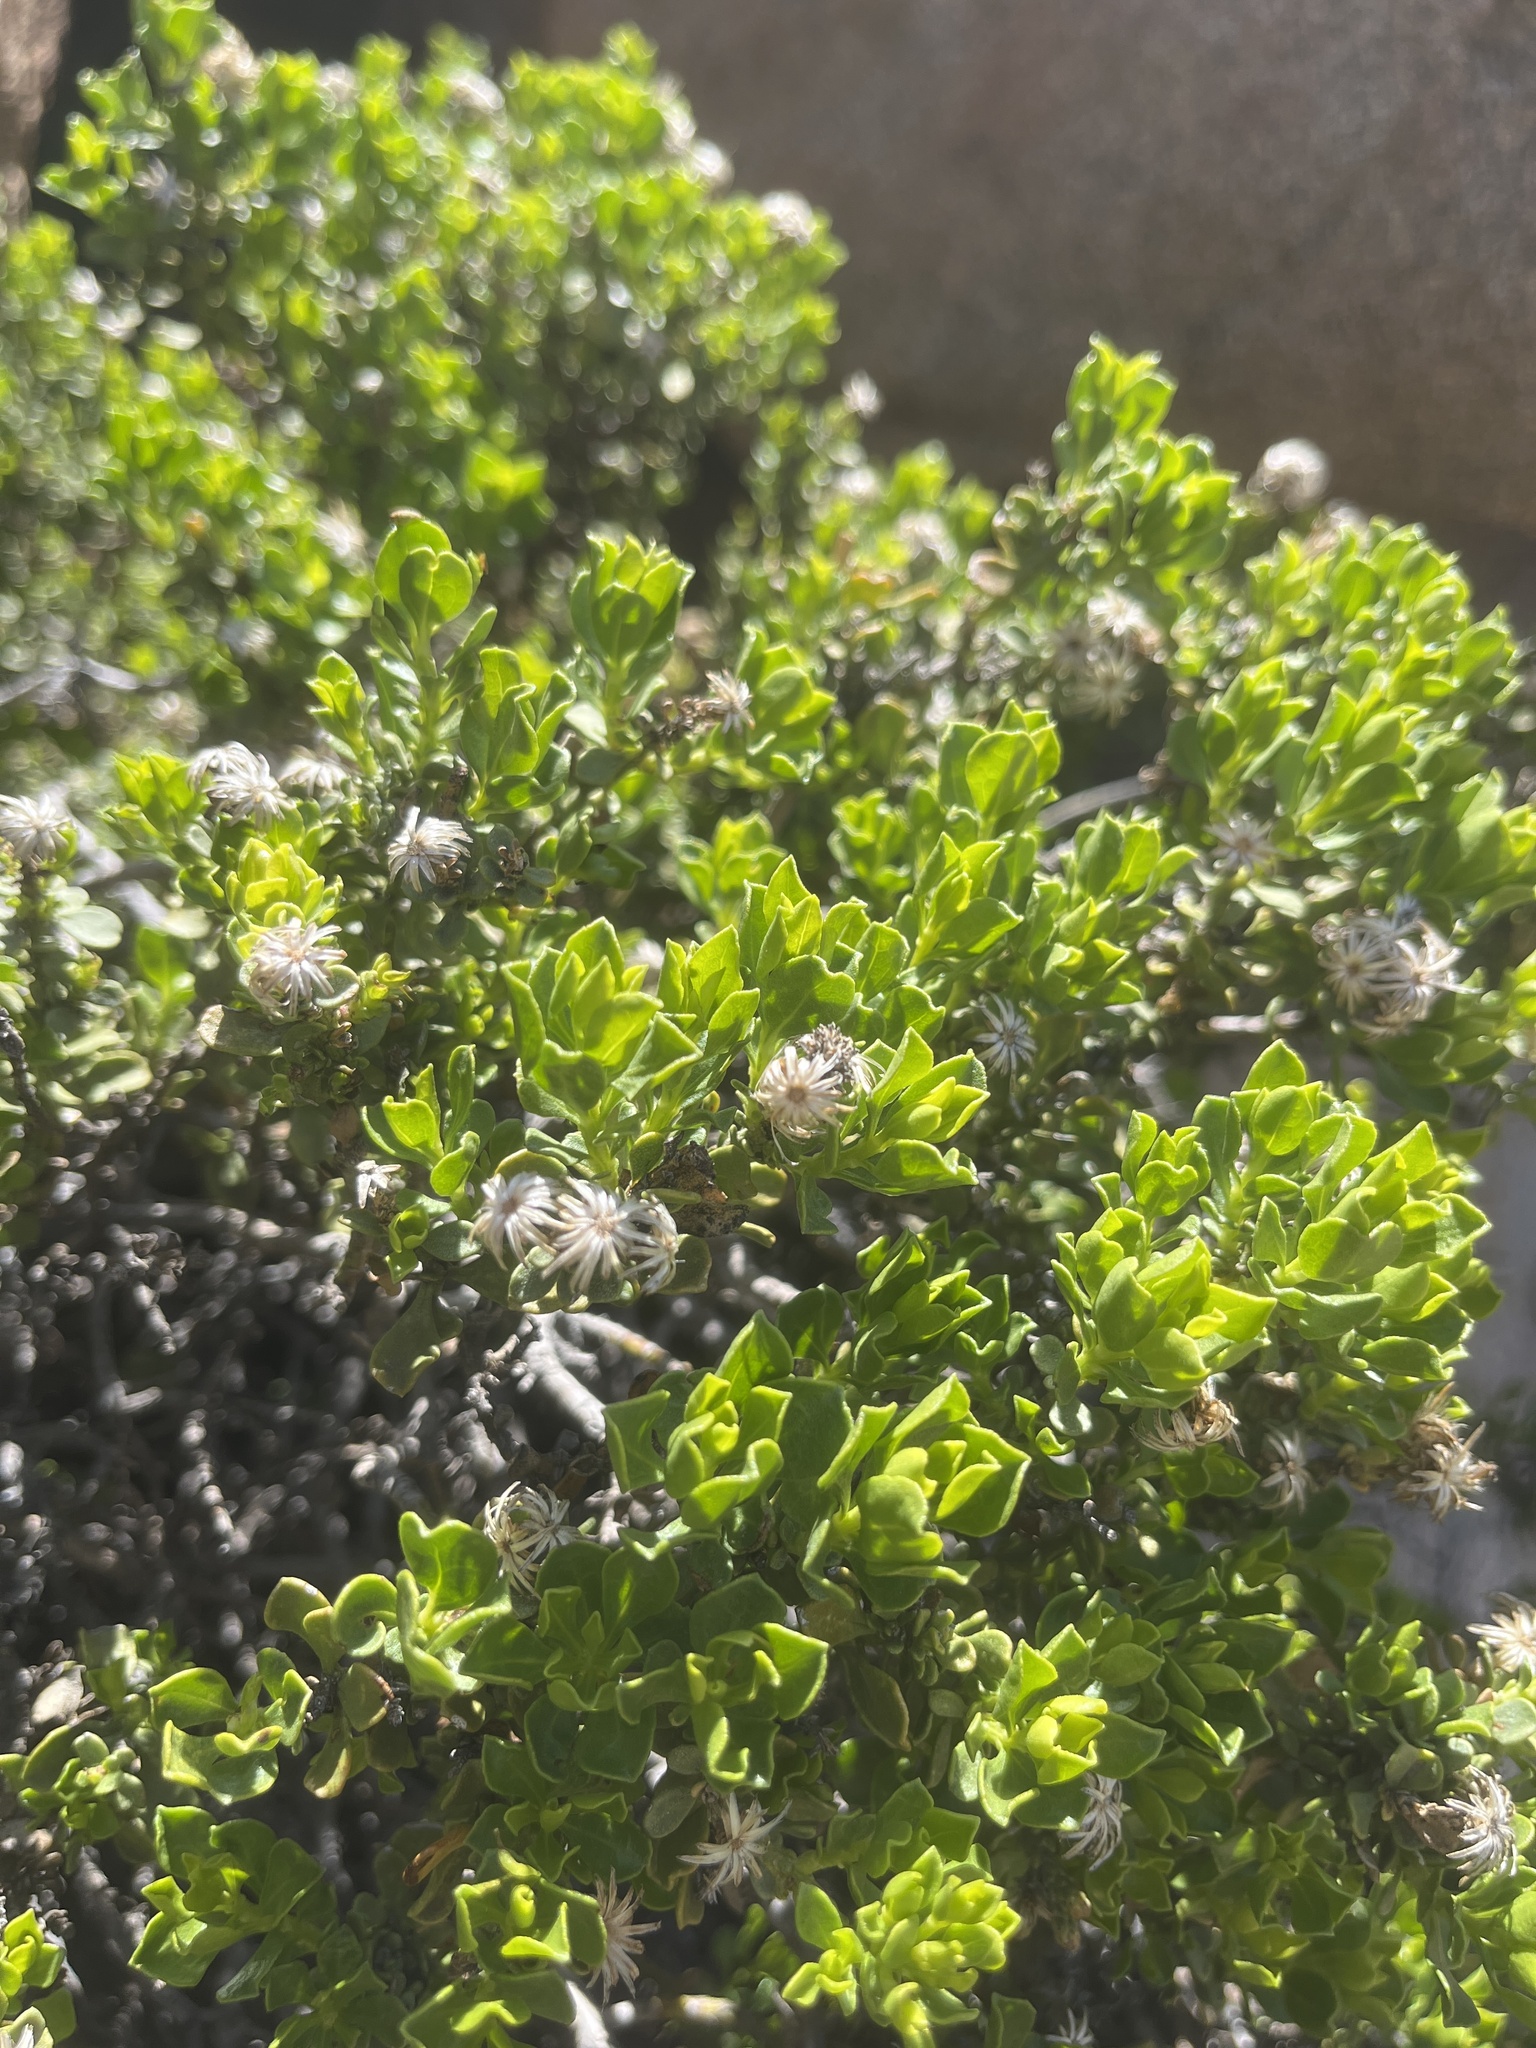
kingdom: Plantae
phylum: Tracheophyta
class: Magnoliopsida
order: Asterales
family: Asteraceae
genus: Ericameria
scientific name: Ericameria cuneata
